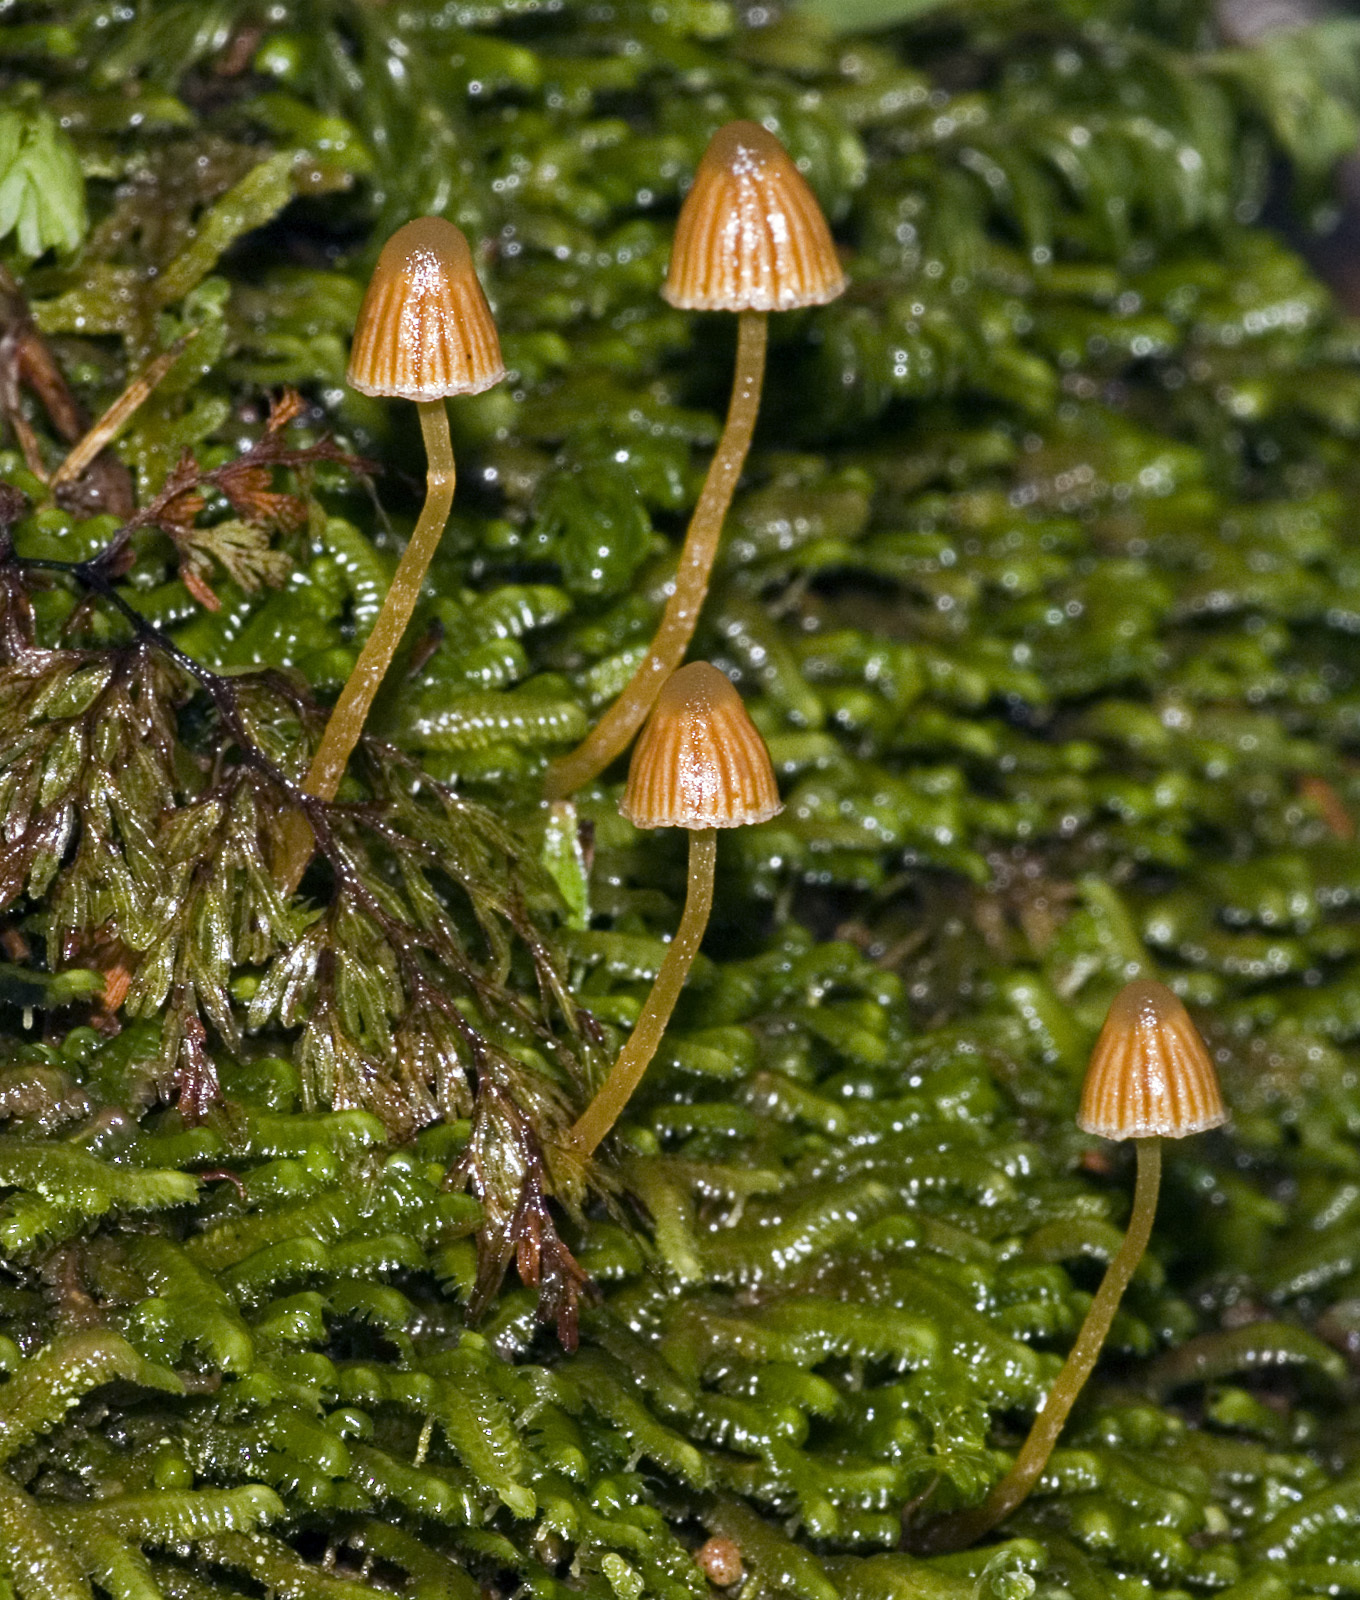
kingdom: Fungi
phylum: Basidiomycota
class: Agaricomycetes
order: Agaricales
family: Hymenogastraceae
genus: Galerina
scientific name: Galerina austrocalyptrata
